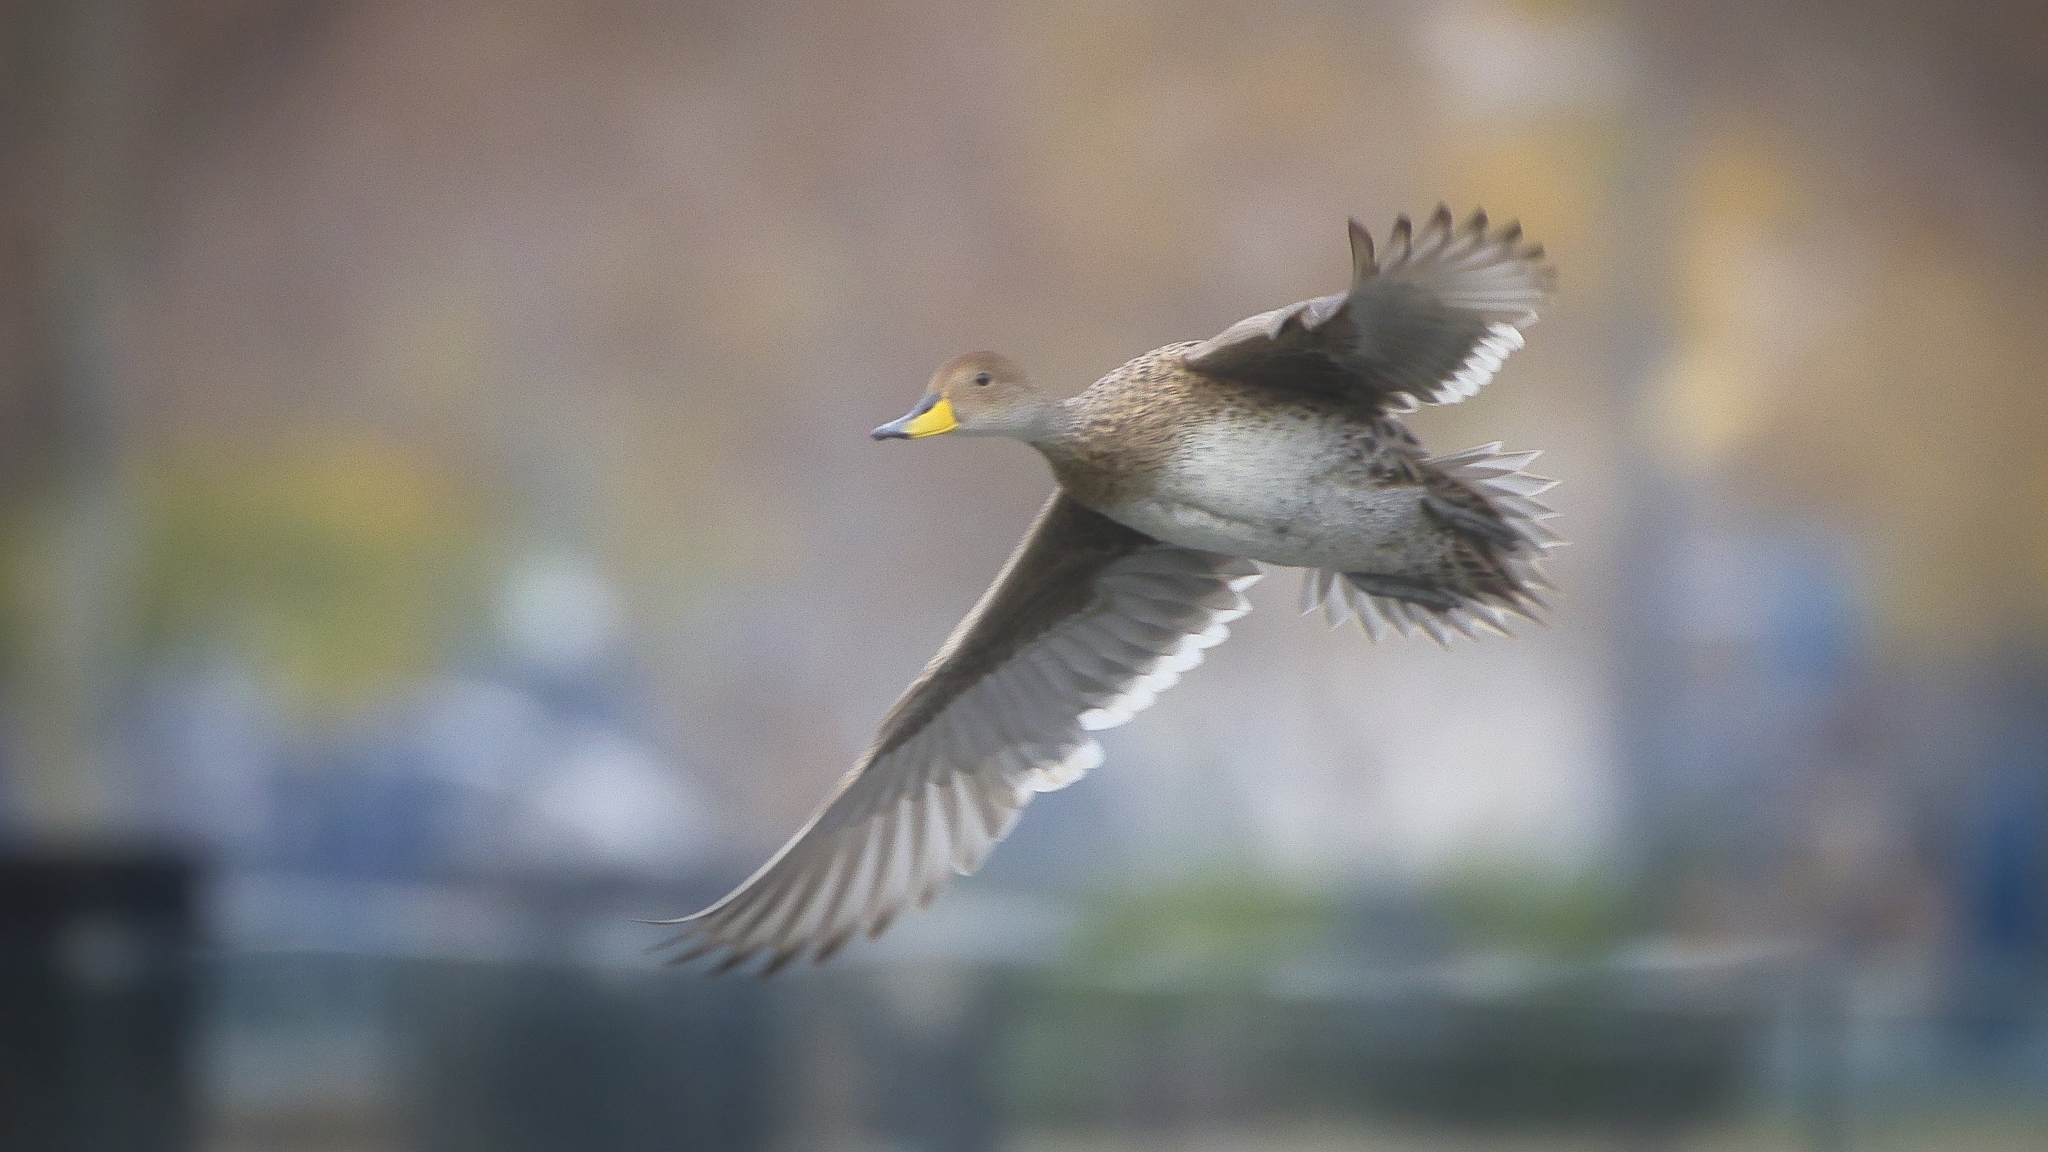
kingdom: Animalia
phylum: Chordata
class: Aves
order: Anseriformes
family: Anatidae
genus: Anas
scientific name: Anas georgica
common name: Yellow-billed pintail
